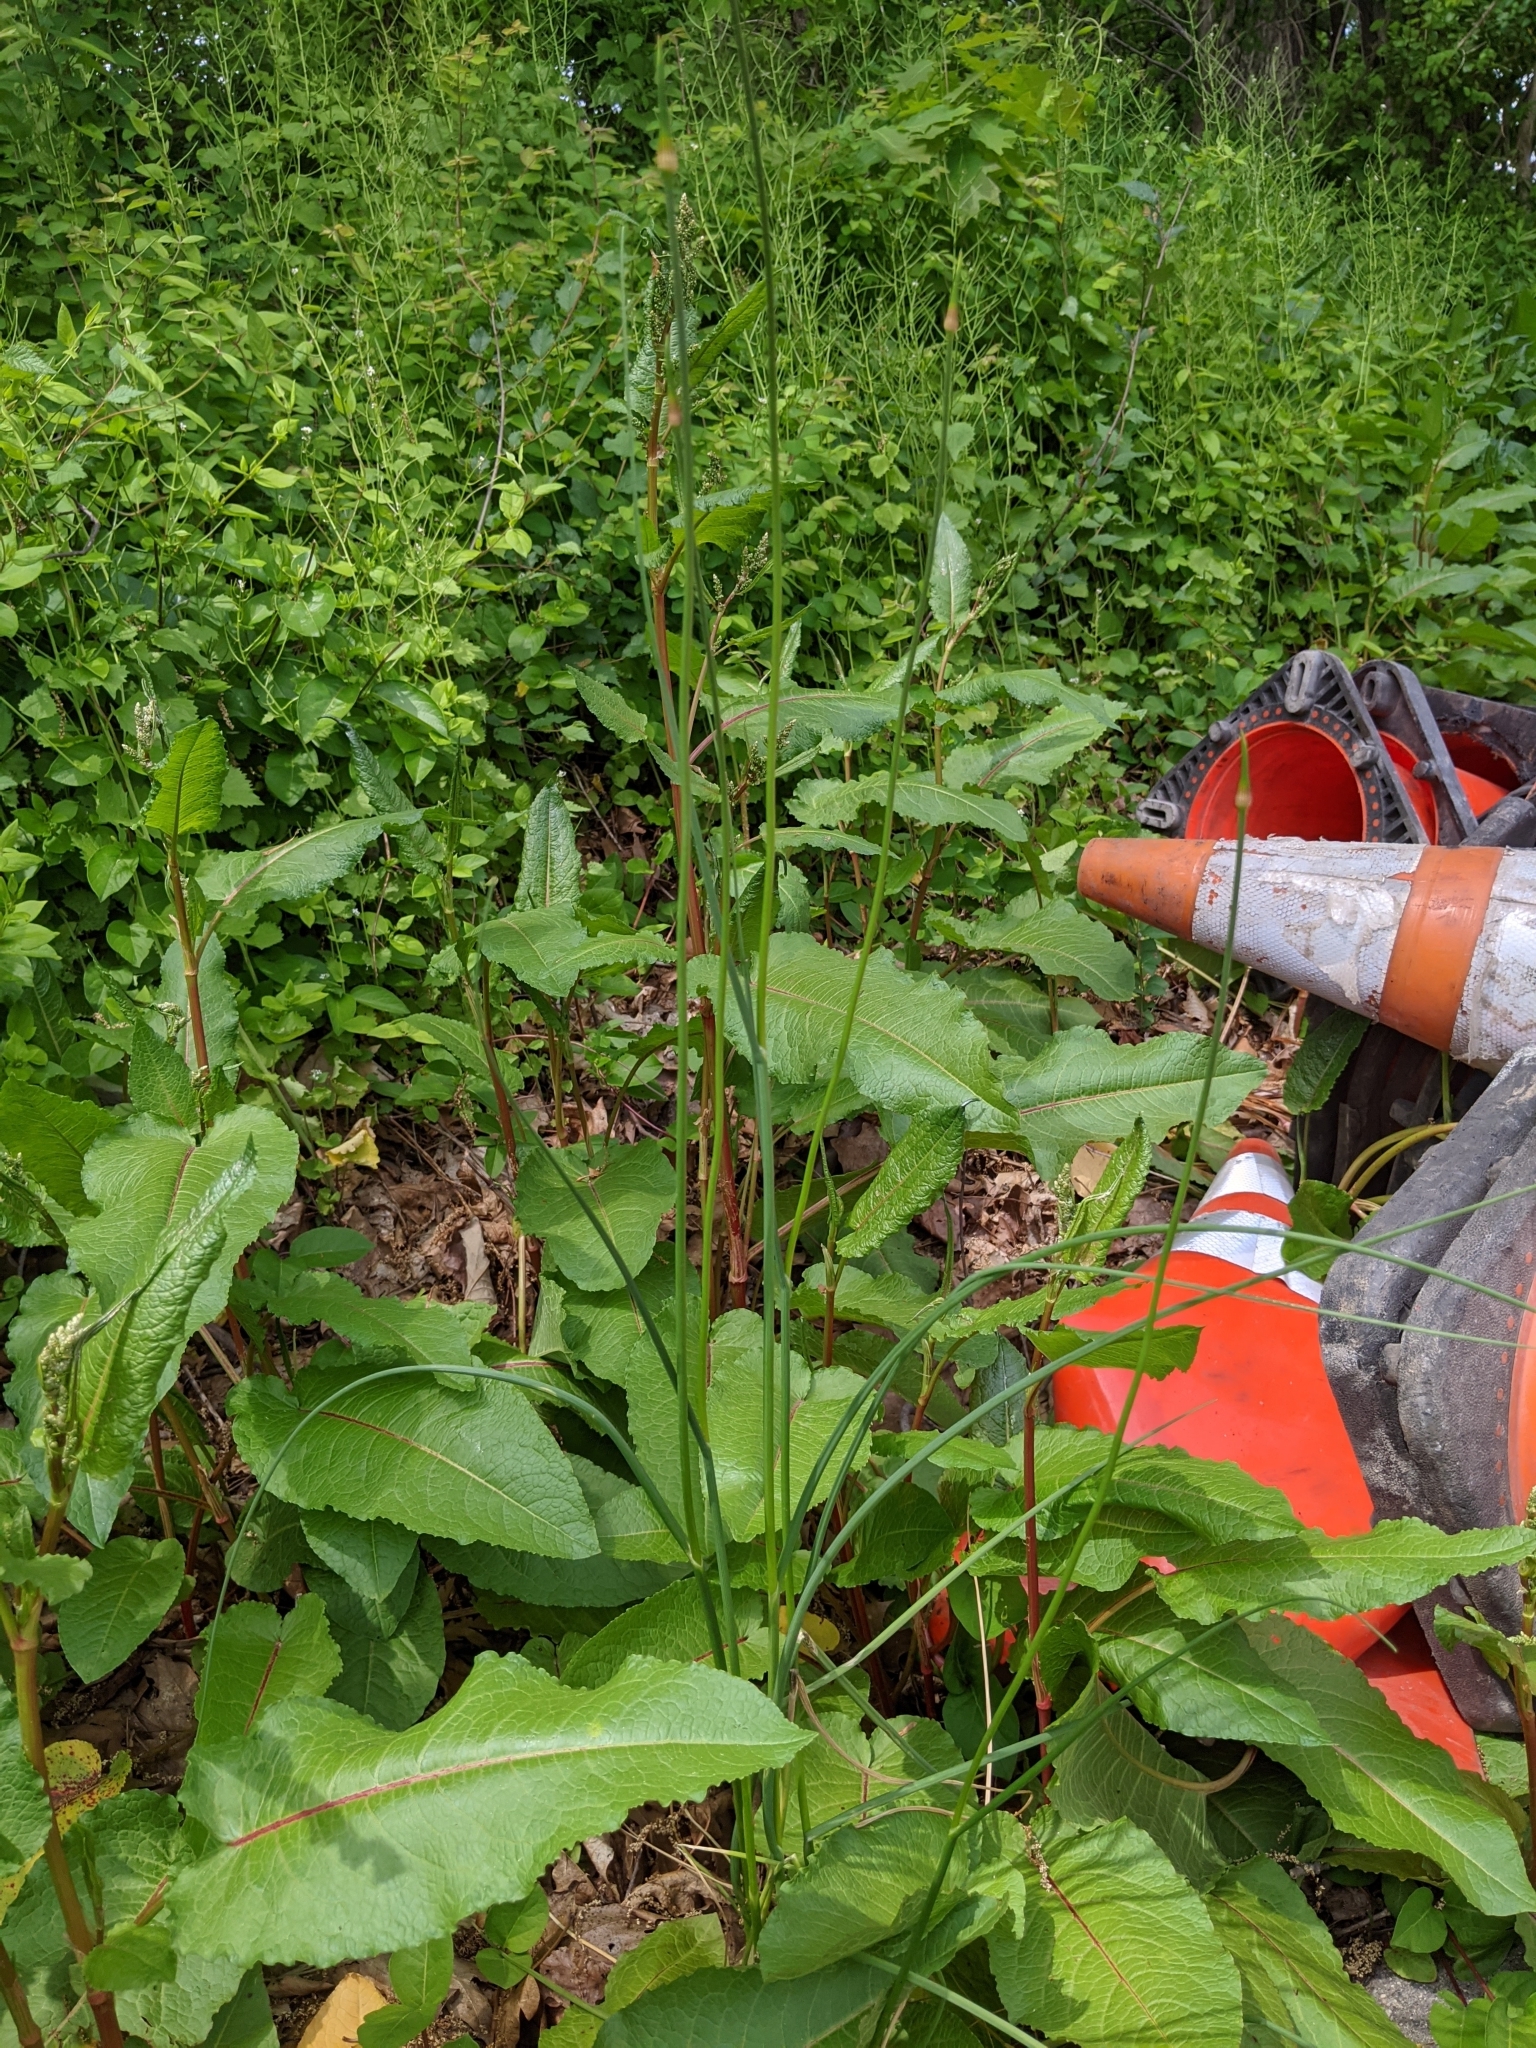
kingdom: Plantae
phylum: Tracheophyta
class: Liliopsida
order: Asparagales
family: Amaryllidaceae
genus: Allium
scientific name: Allium vineale
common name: Crow garlic
